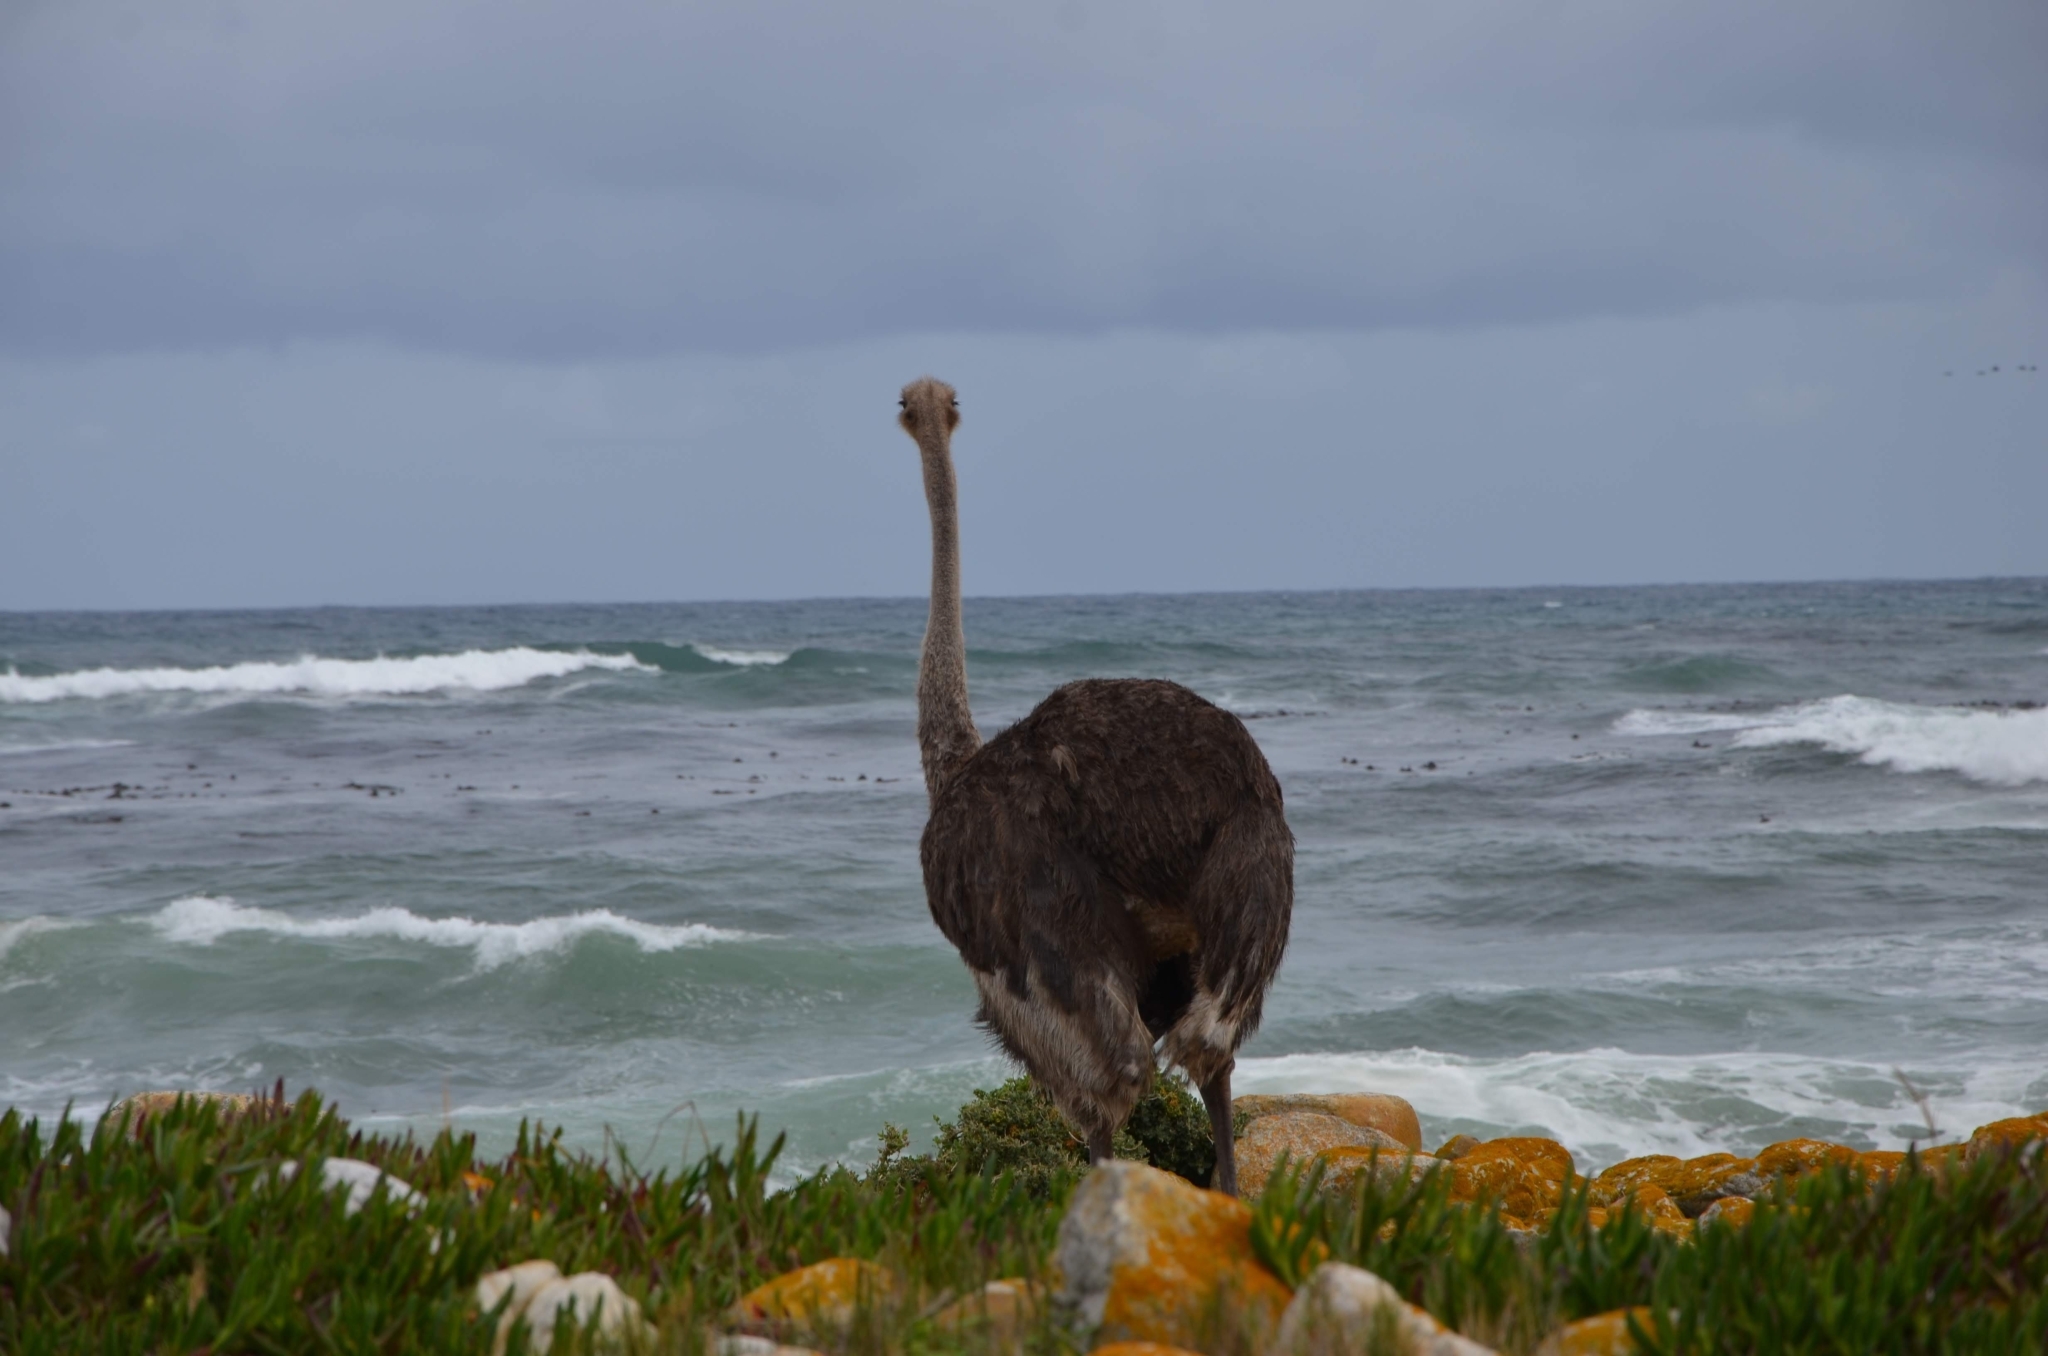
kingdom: Animalia
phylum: Chordata
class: Aves
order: Struthioniformes
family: Struthionidae
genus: Struthio
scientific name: Struthio camelus
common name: Common ostrich
